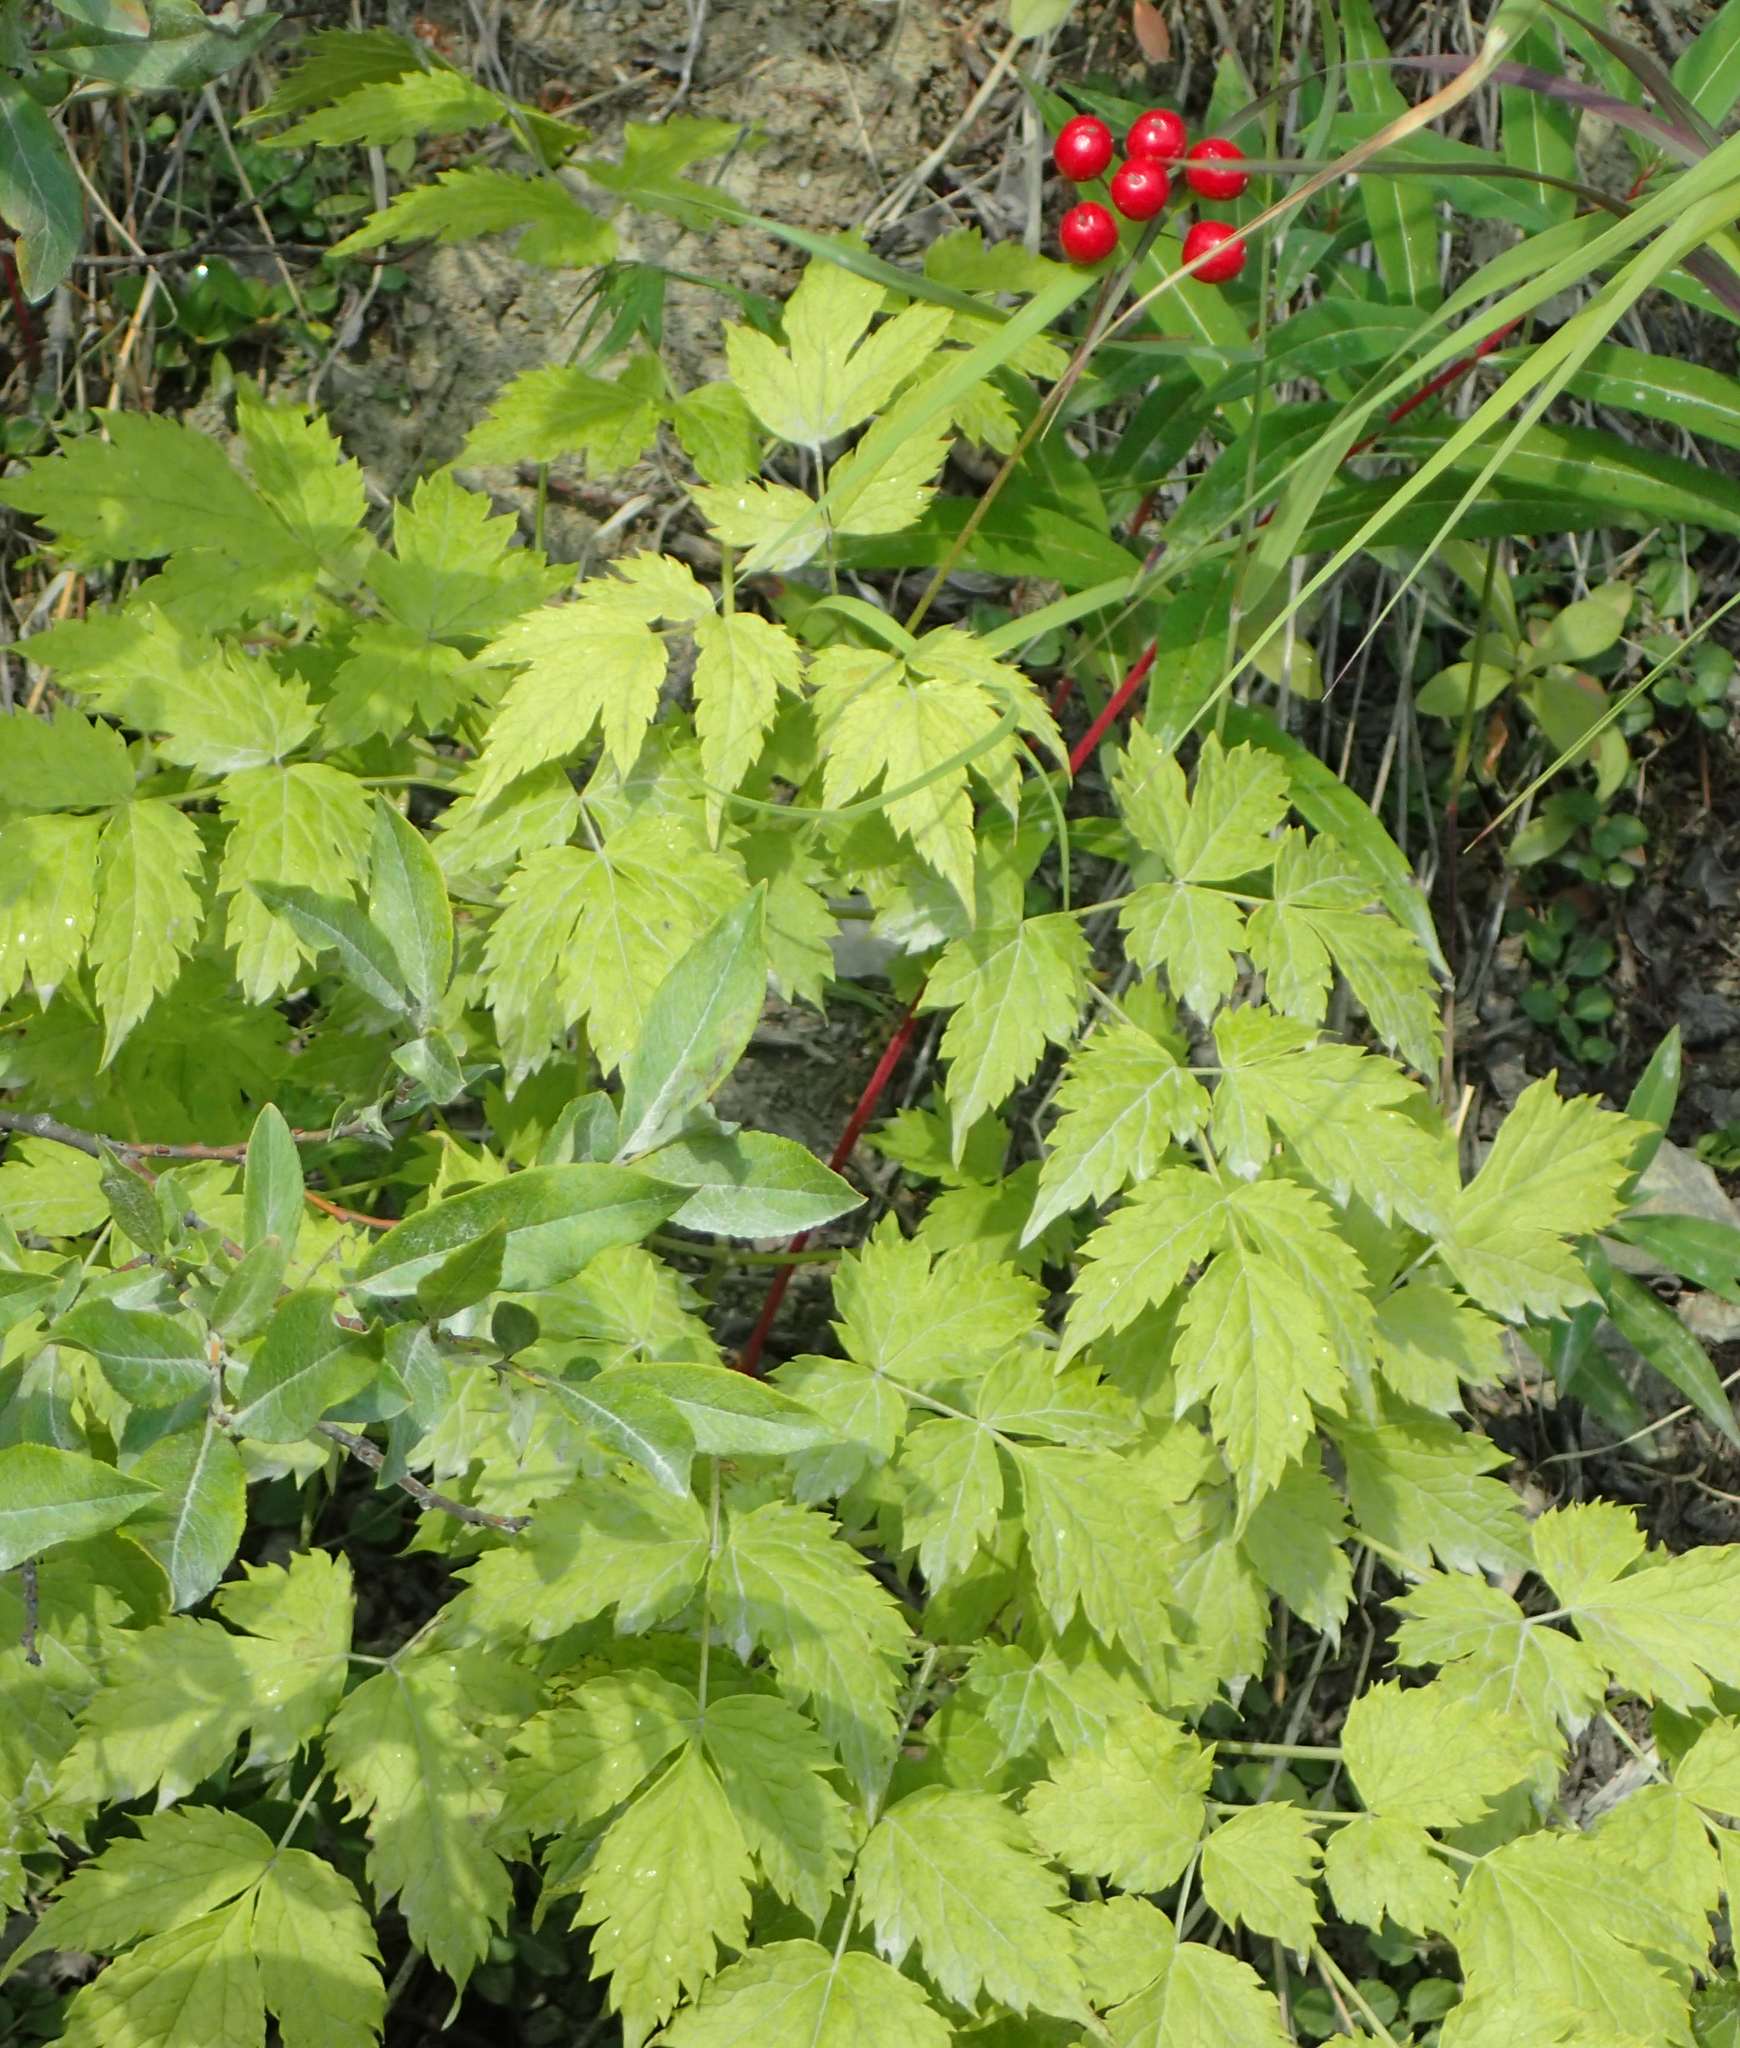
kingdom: Plantae
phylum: Tracheophyta
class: Magnoliopsida
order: Ranunculales
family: Ranunculaceae
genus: Actaea
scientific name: Actaea rubra
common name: Red baneberry
